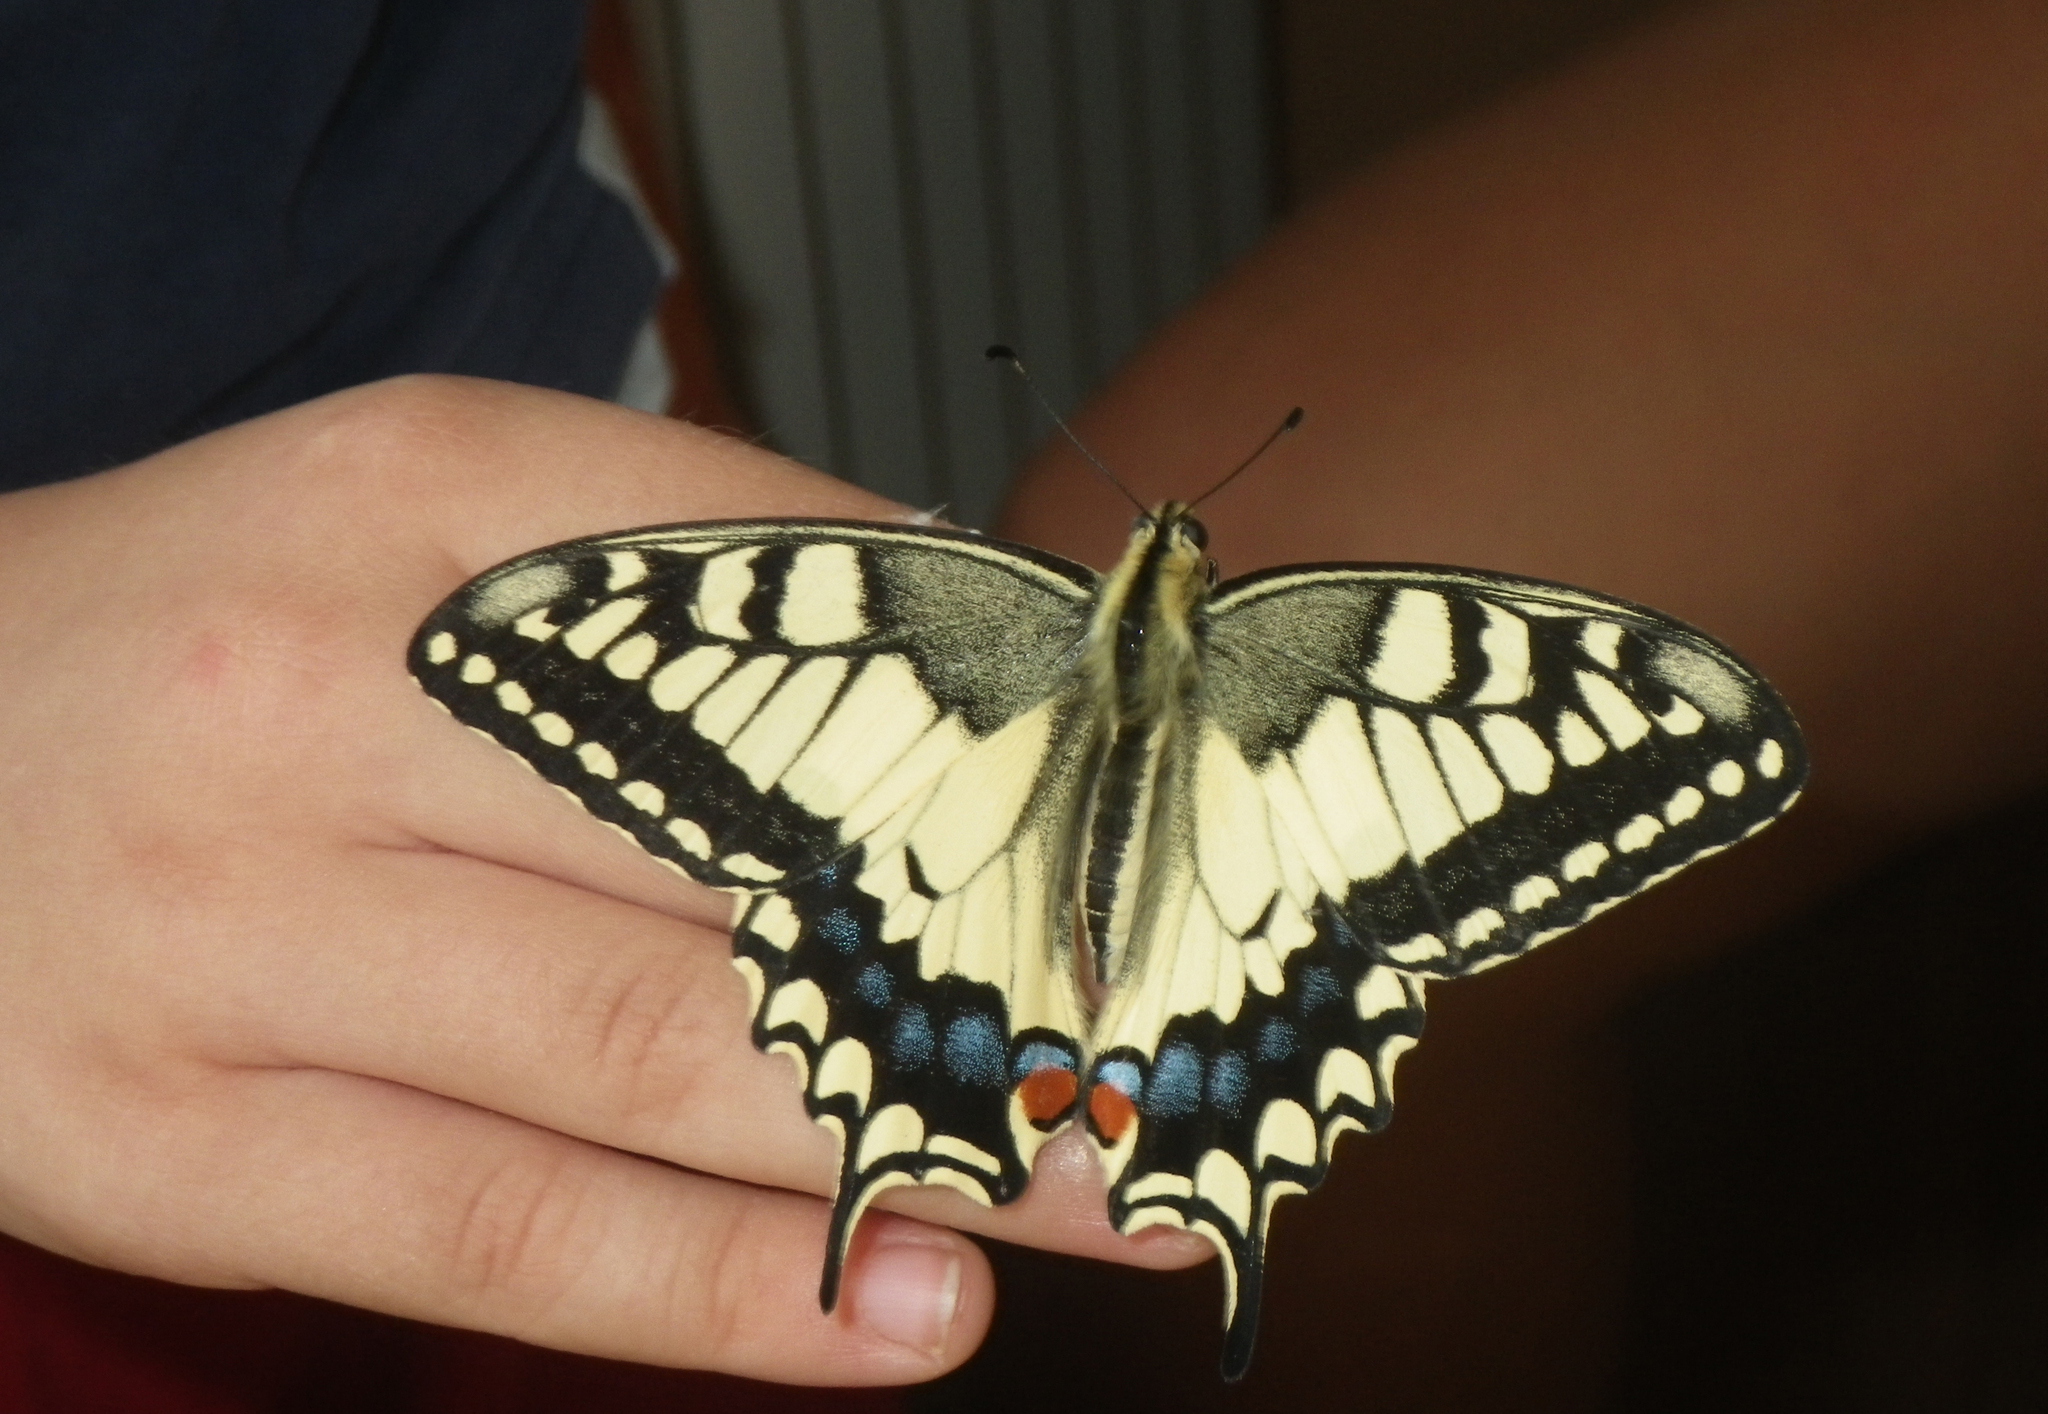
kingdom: Animalia
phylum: Arthropoda
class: Insecta
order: Lepidoptera
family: Papilionidae
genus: Papilio
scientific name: Papilio machaon
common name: Swallowtail
